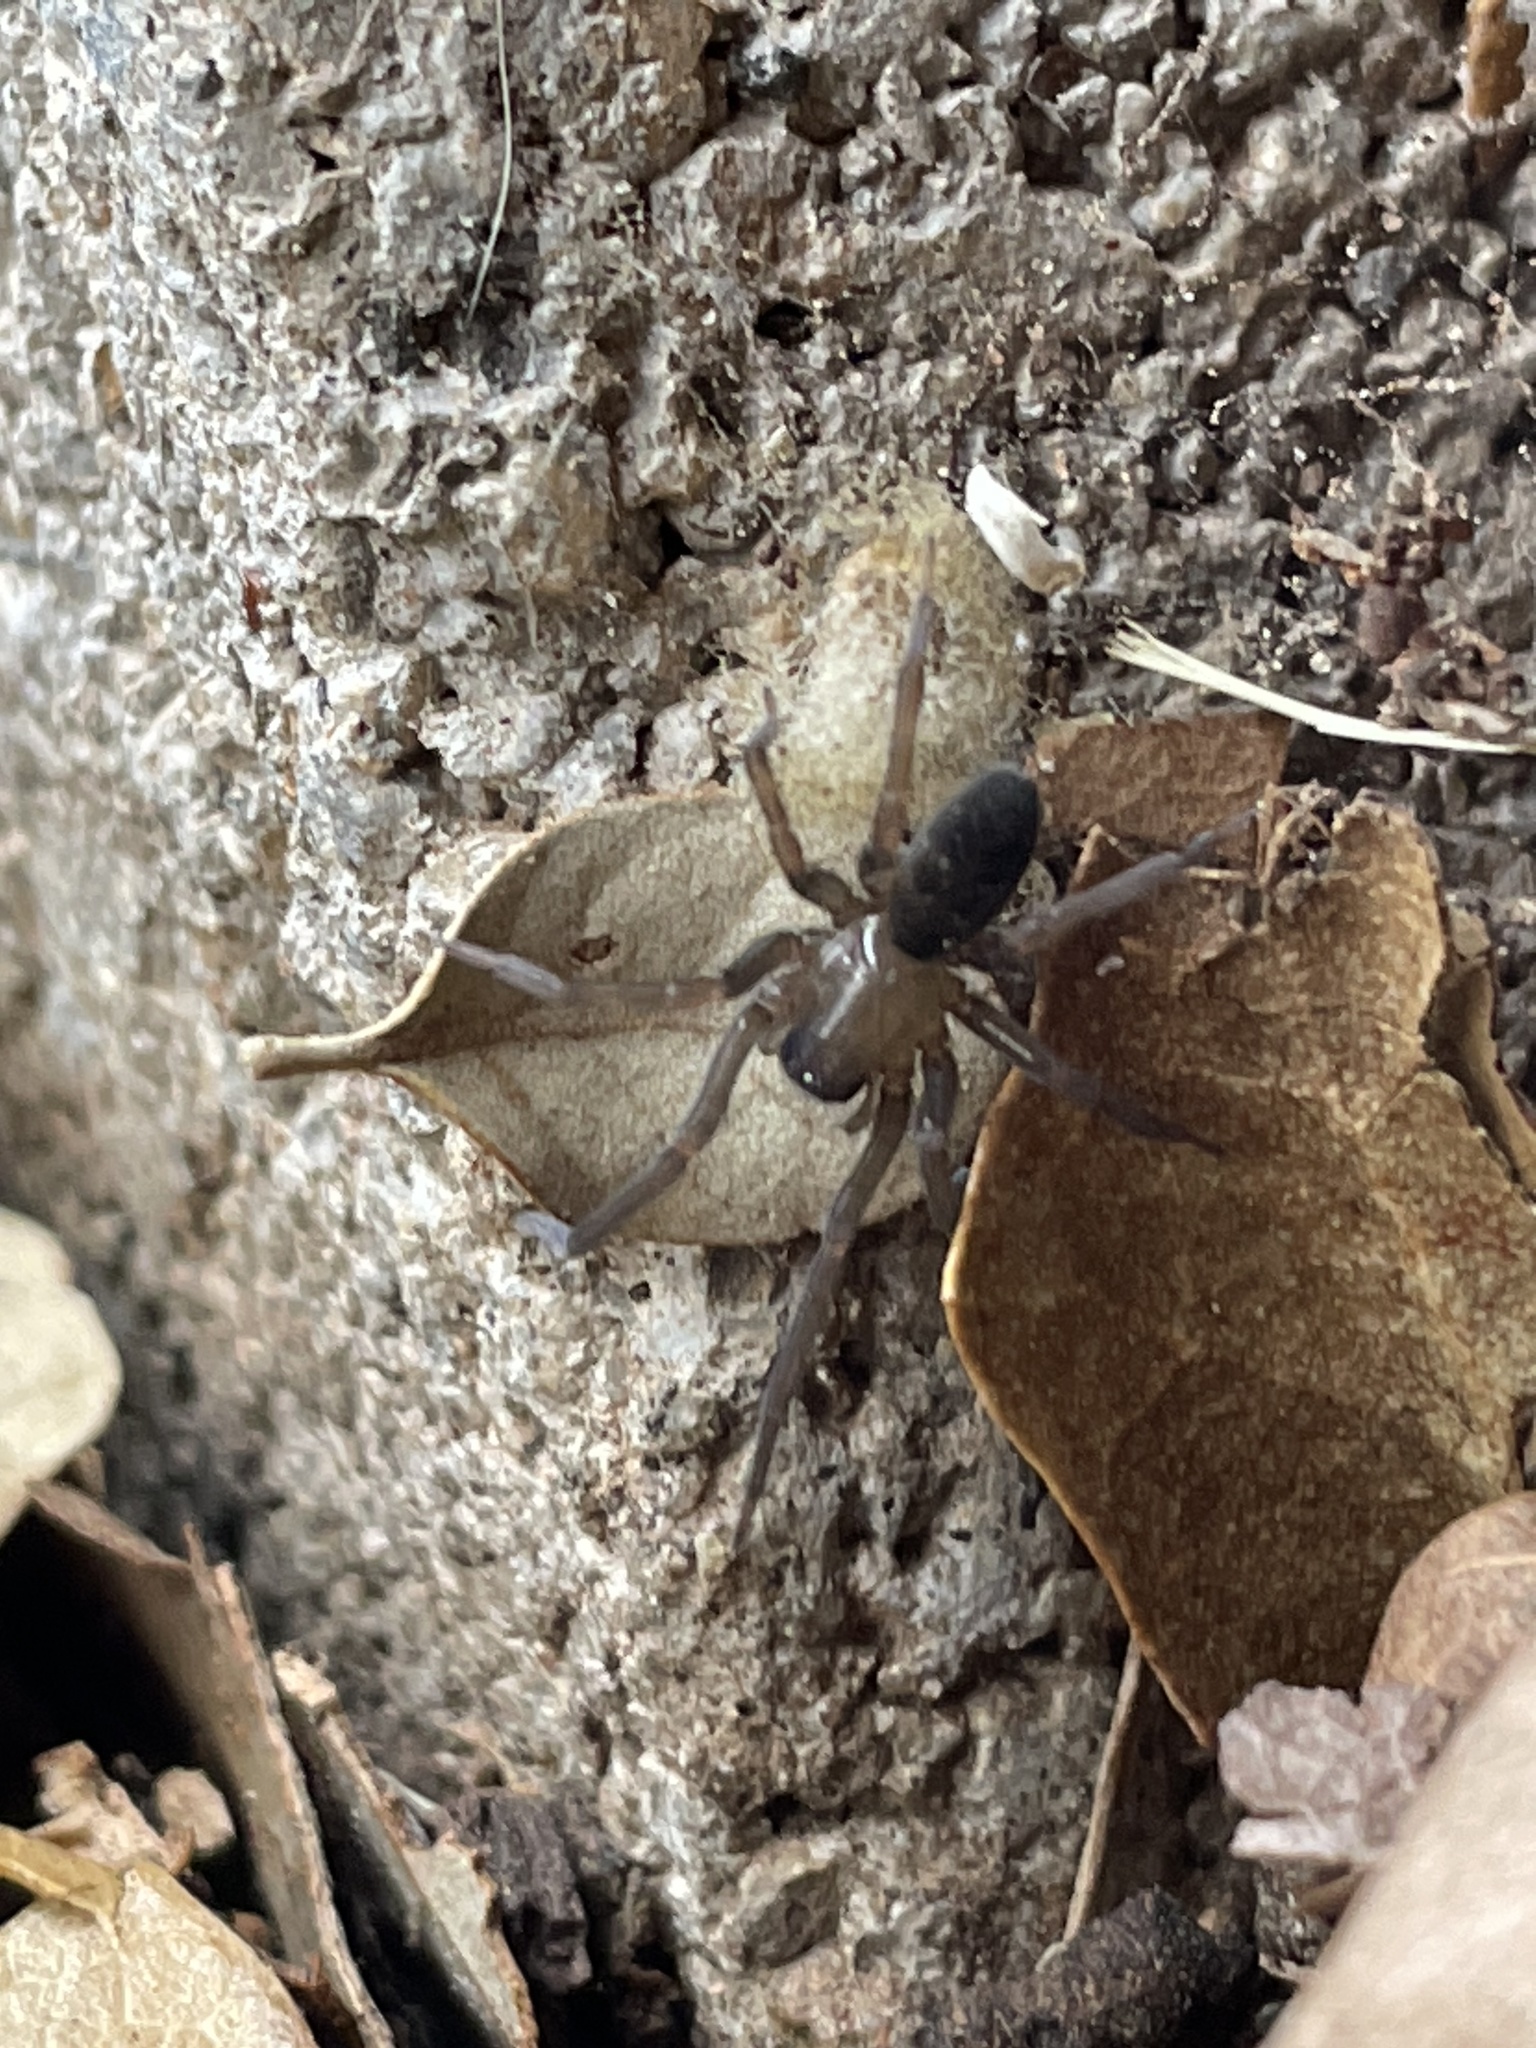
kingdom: Animalia
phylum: Arthropoda
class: Arachnida
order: Araneae
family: Desidae
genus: Metaltella
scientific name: Metaltella simoni
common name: Cribellate spider
